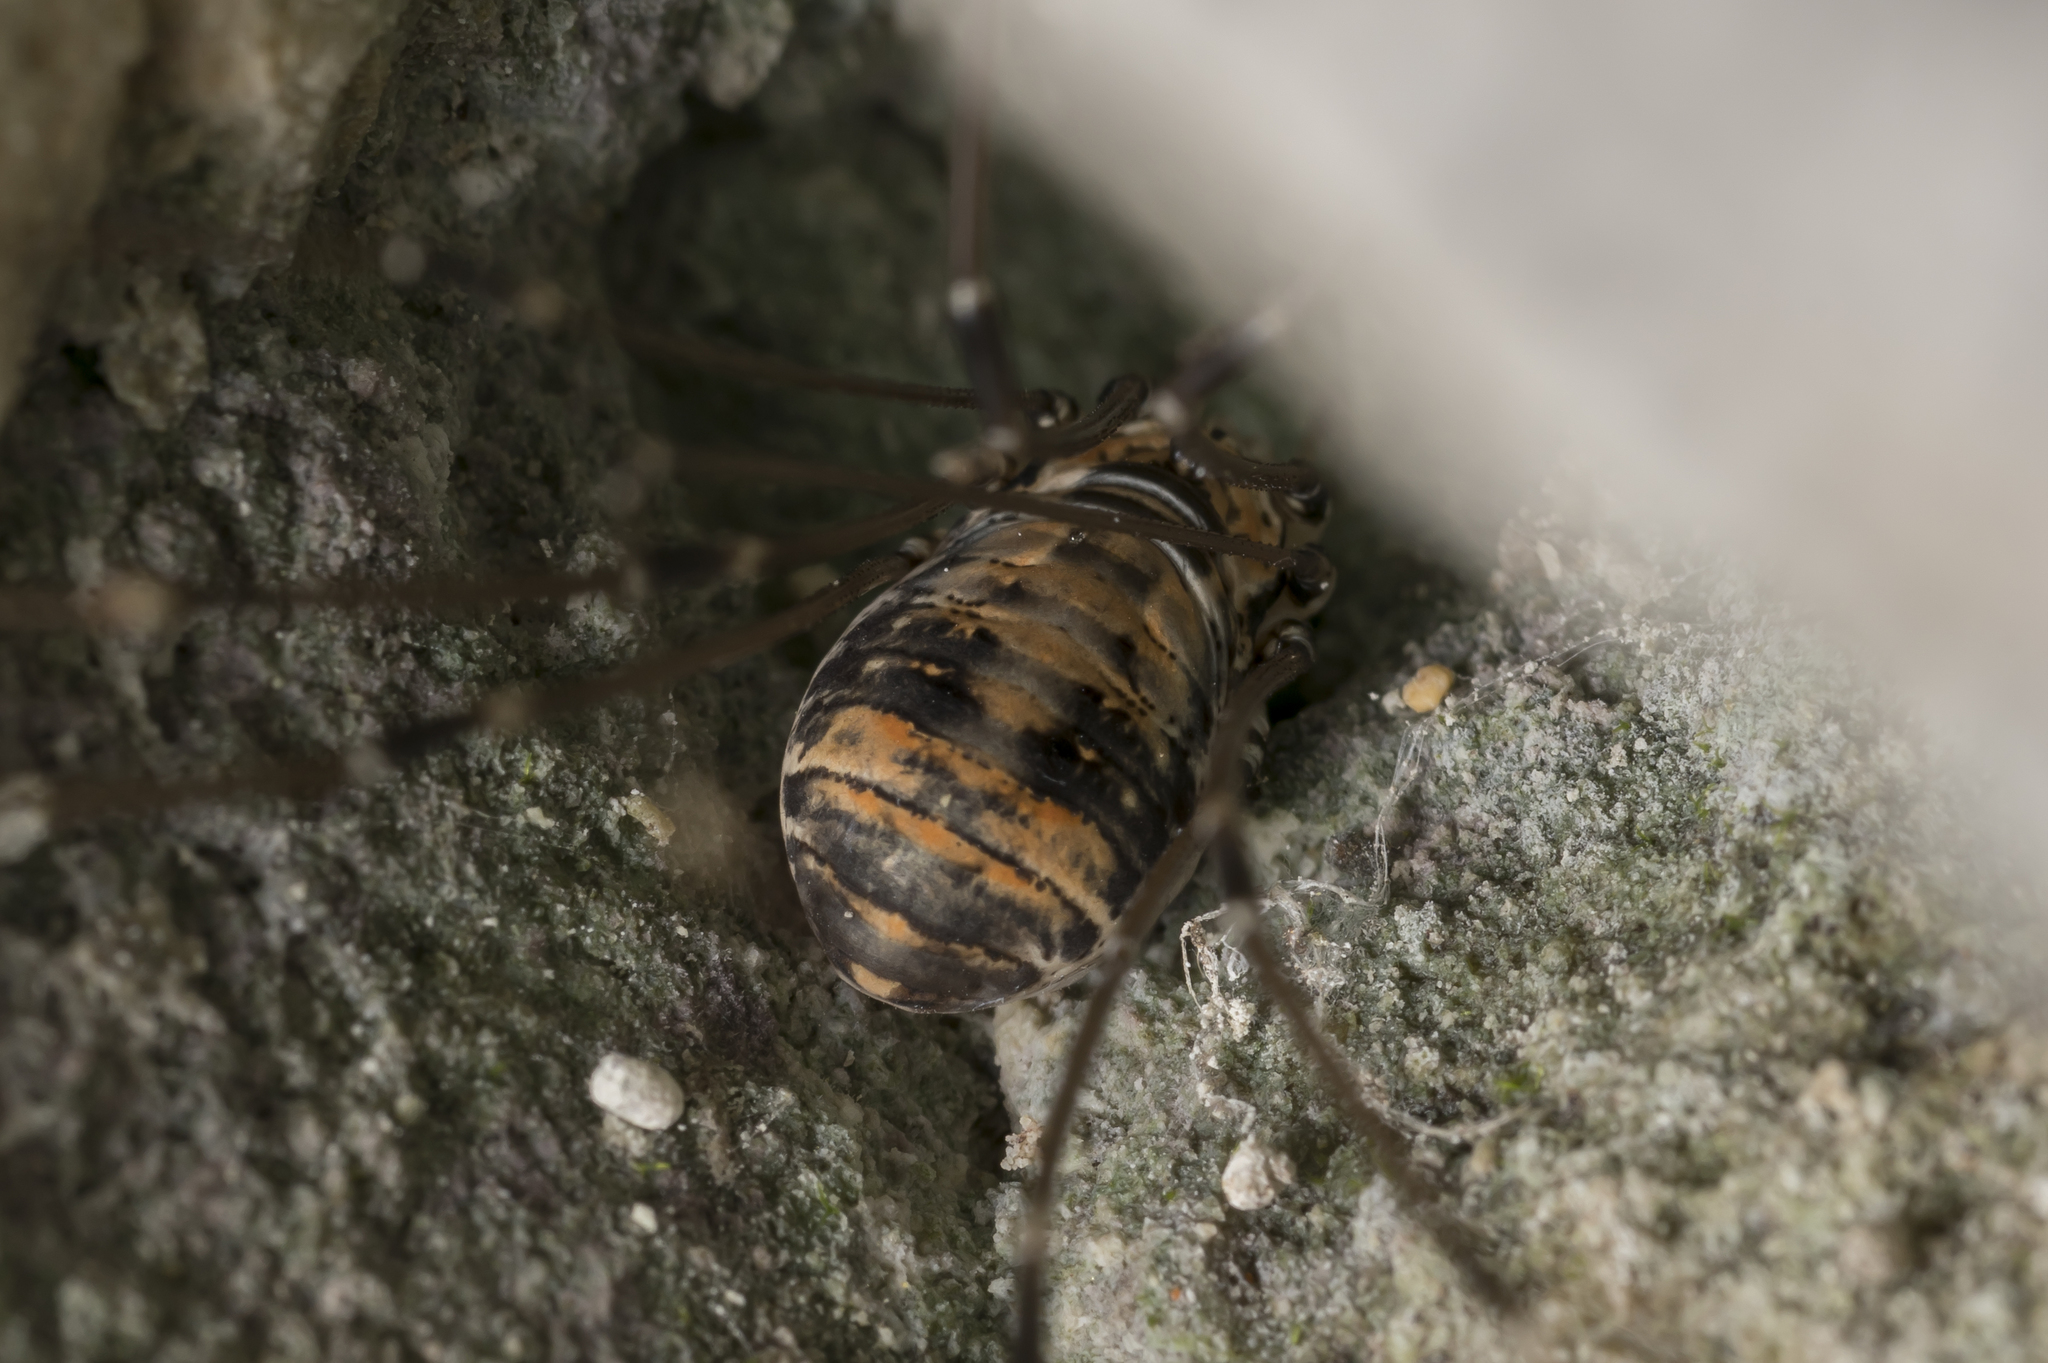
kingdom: Animalia
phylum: Arthropoda
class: Arachnida
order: Opiliones
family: Sclerosomatidae
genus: Leiobunum
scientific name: Leiobunum limbatum
